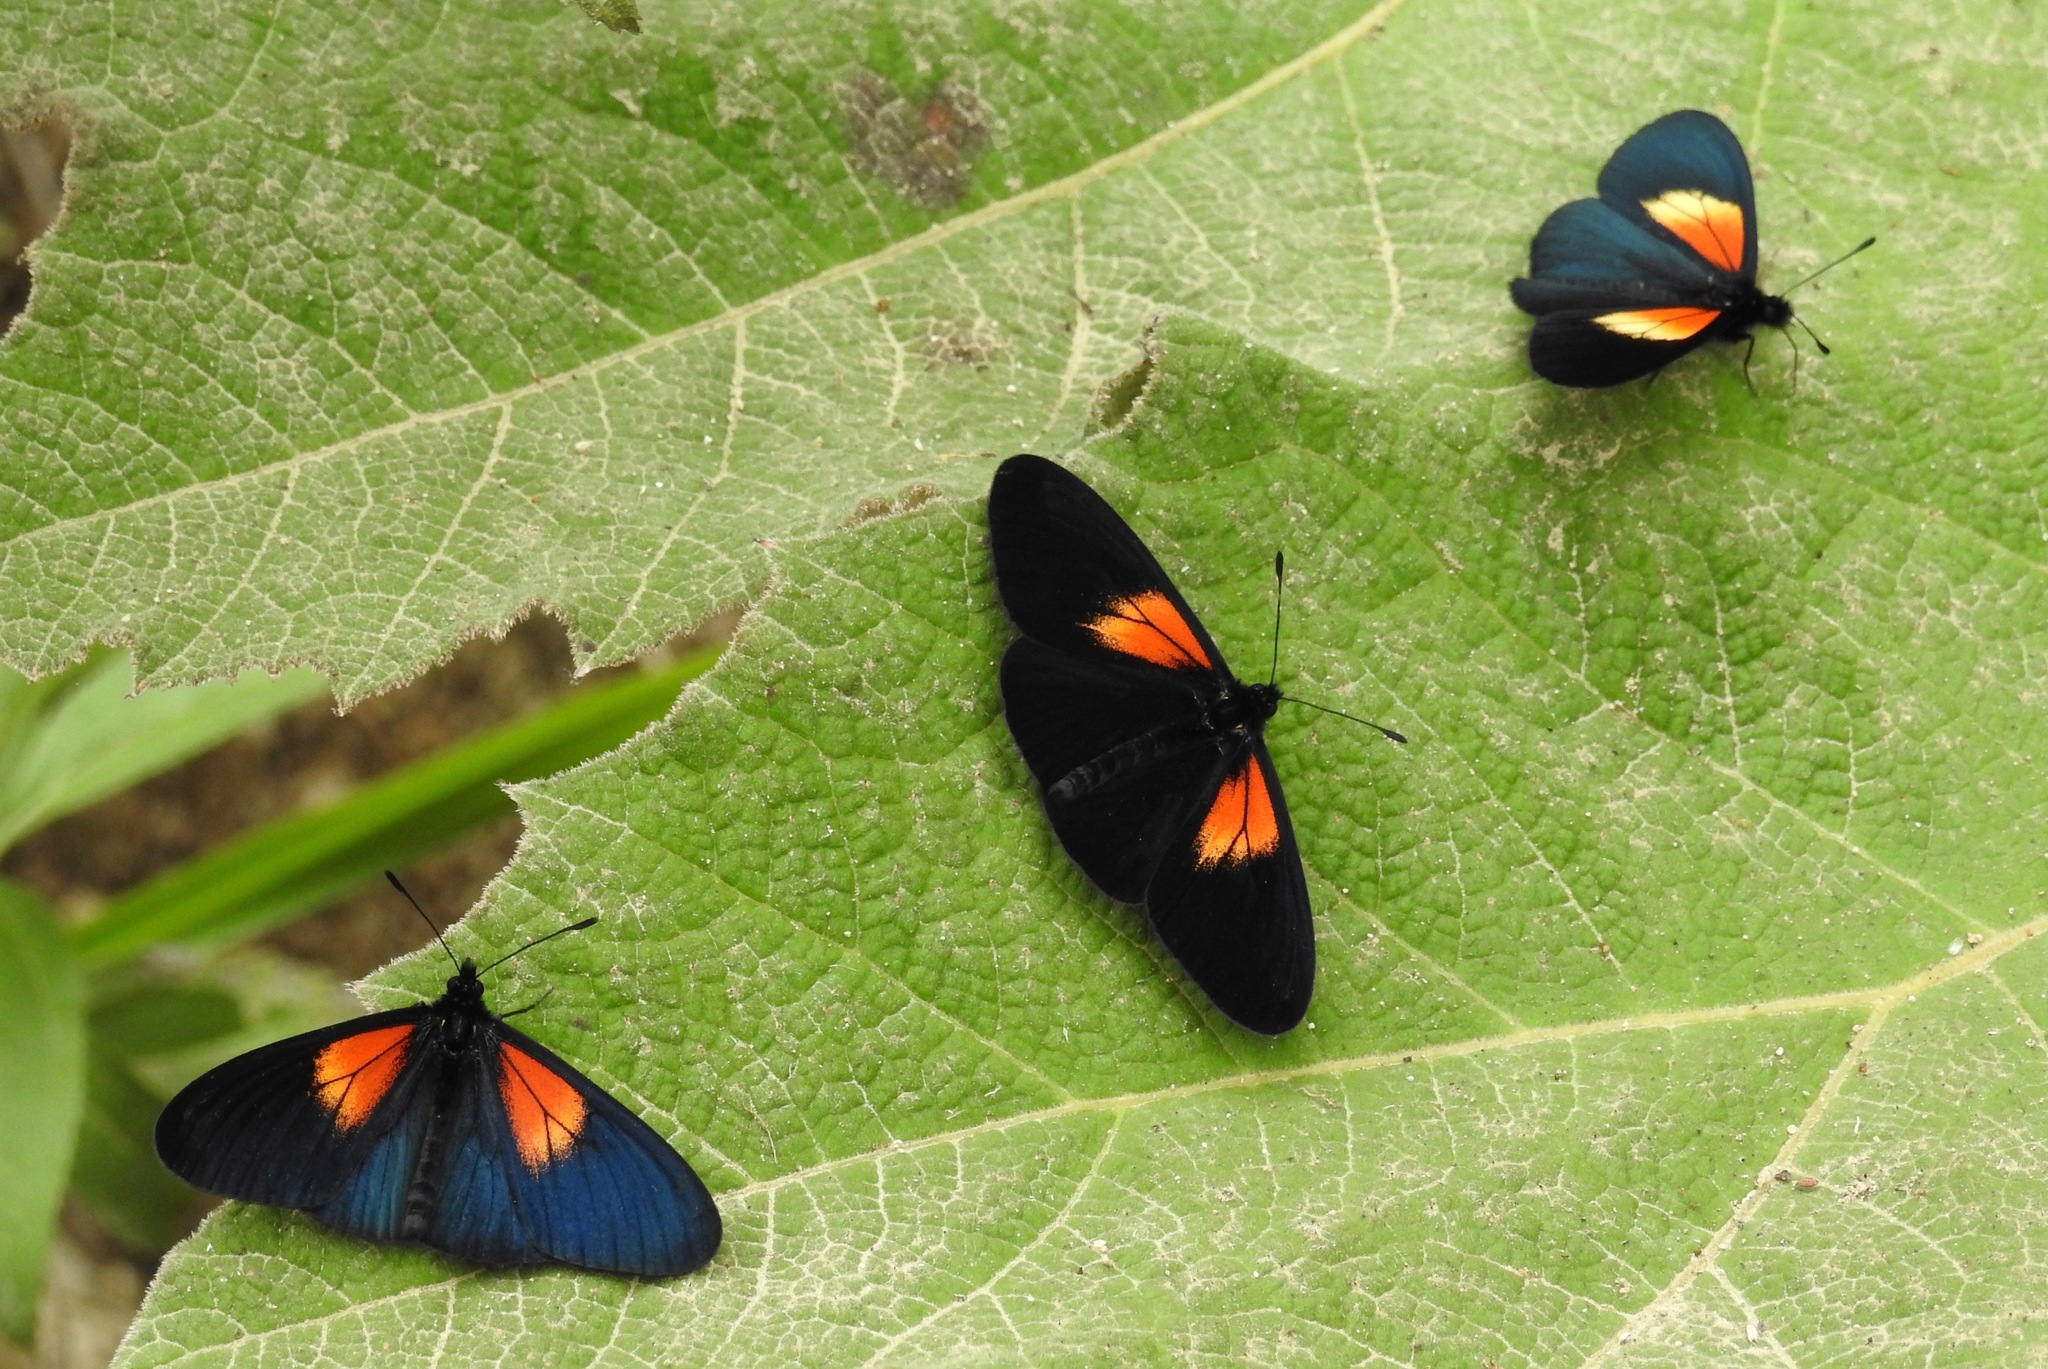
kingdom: Animalia
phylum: Arthropoda
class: Insecta
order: Lepidoptera
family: Nymphalidae
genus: Acraea
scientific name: Acraea Altinote ozomene
